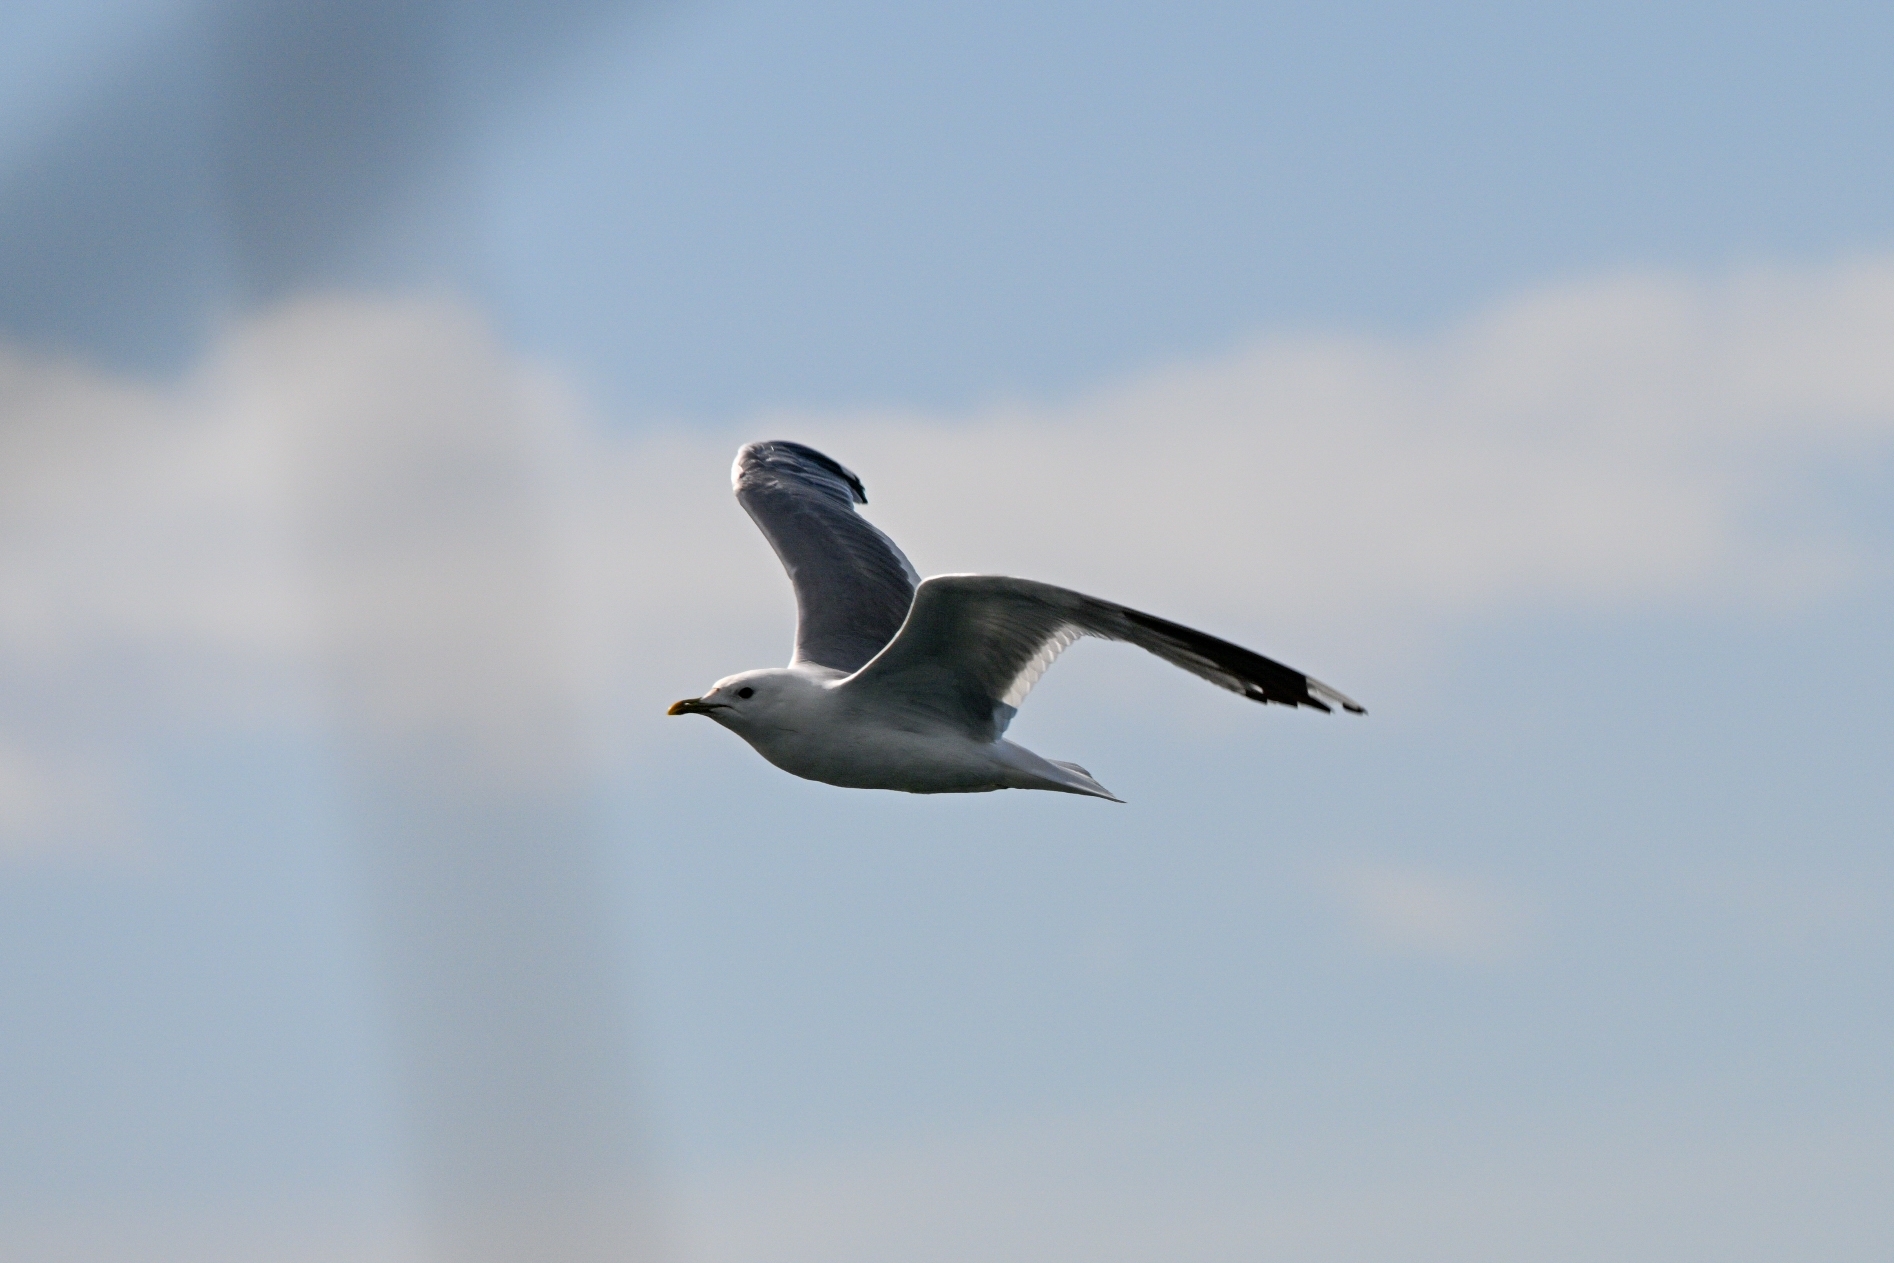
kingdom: Animalia
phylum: Chordata
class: Aves
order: Charadriiformes
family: Laridae
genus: Larus
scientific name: Larus canus
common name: Mew gull
